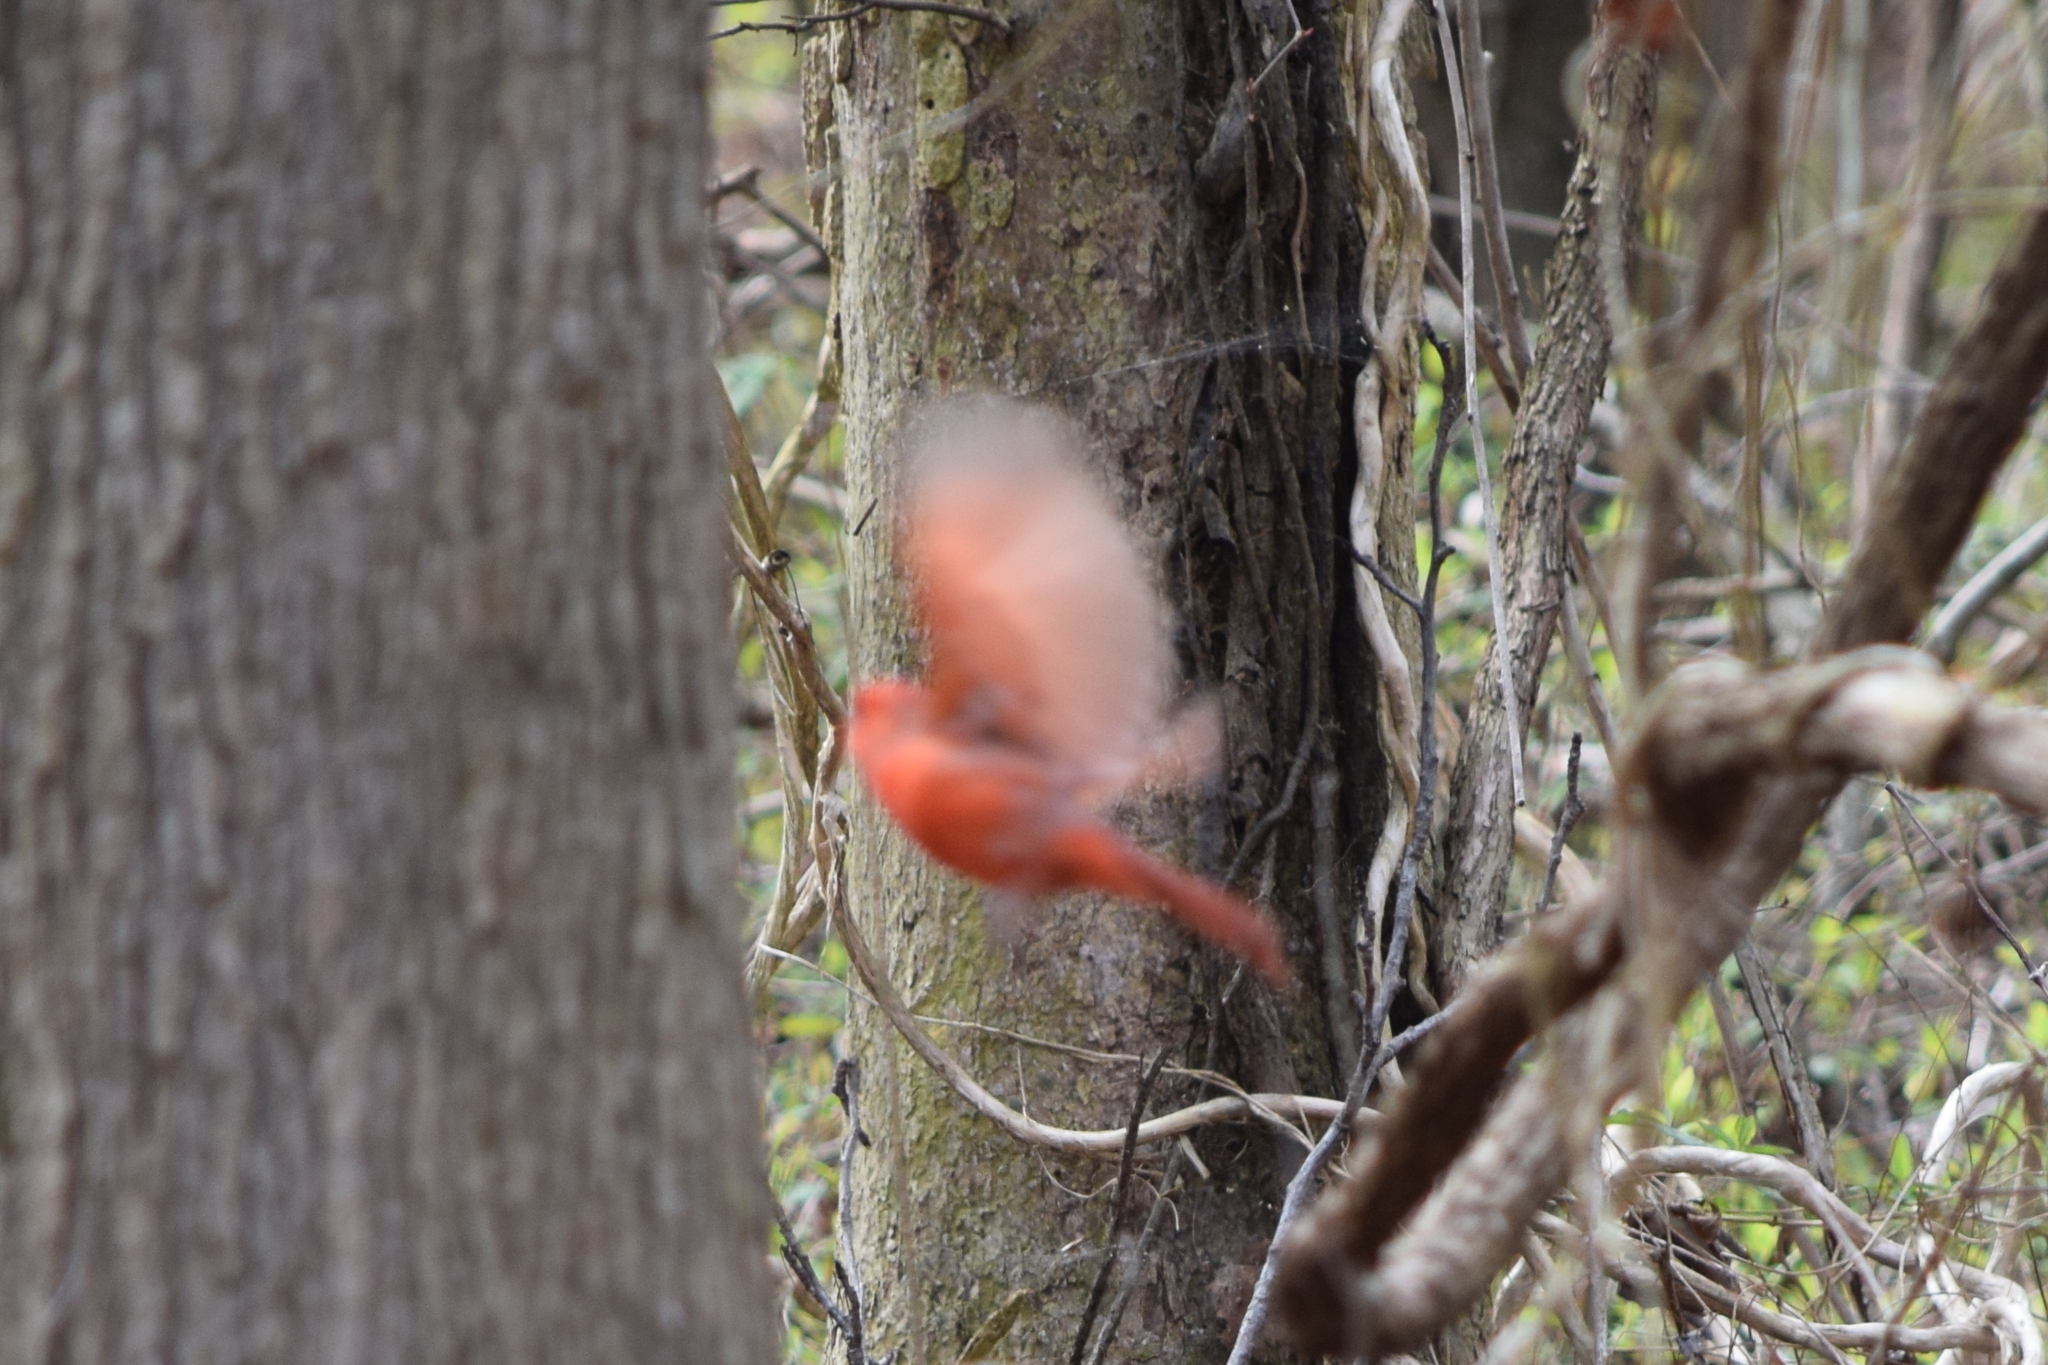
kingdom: Animalia
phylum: Chordata
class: Aves
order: Passeriformes
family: Cardinalidae
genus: Cardinalis
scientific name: Cardinalis cardinalis
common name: Northern cardinal
